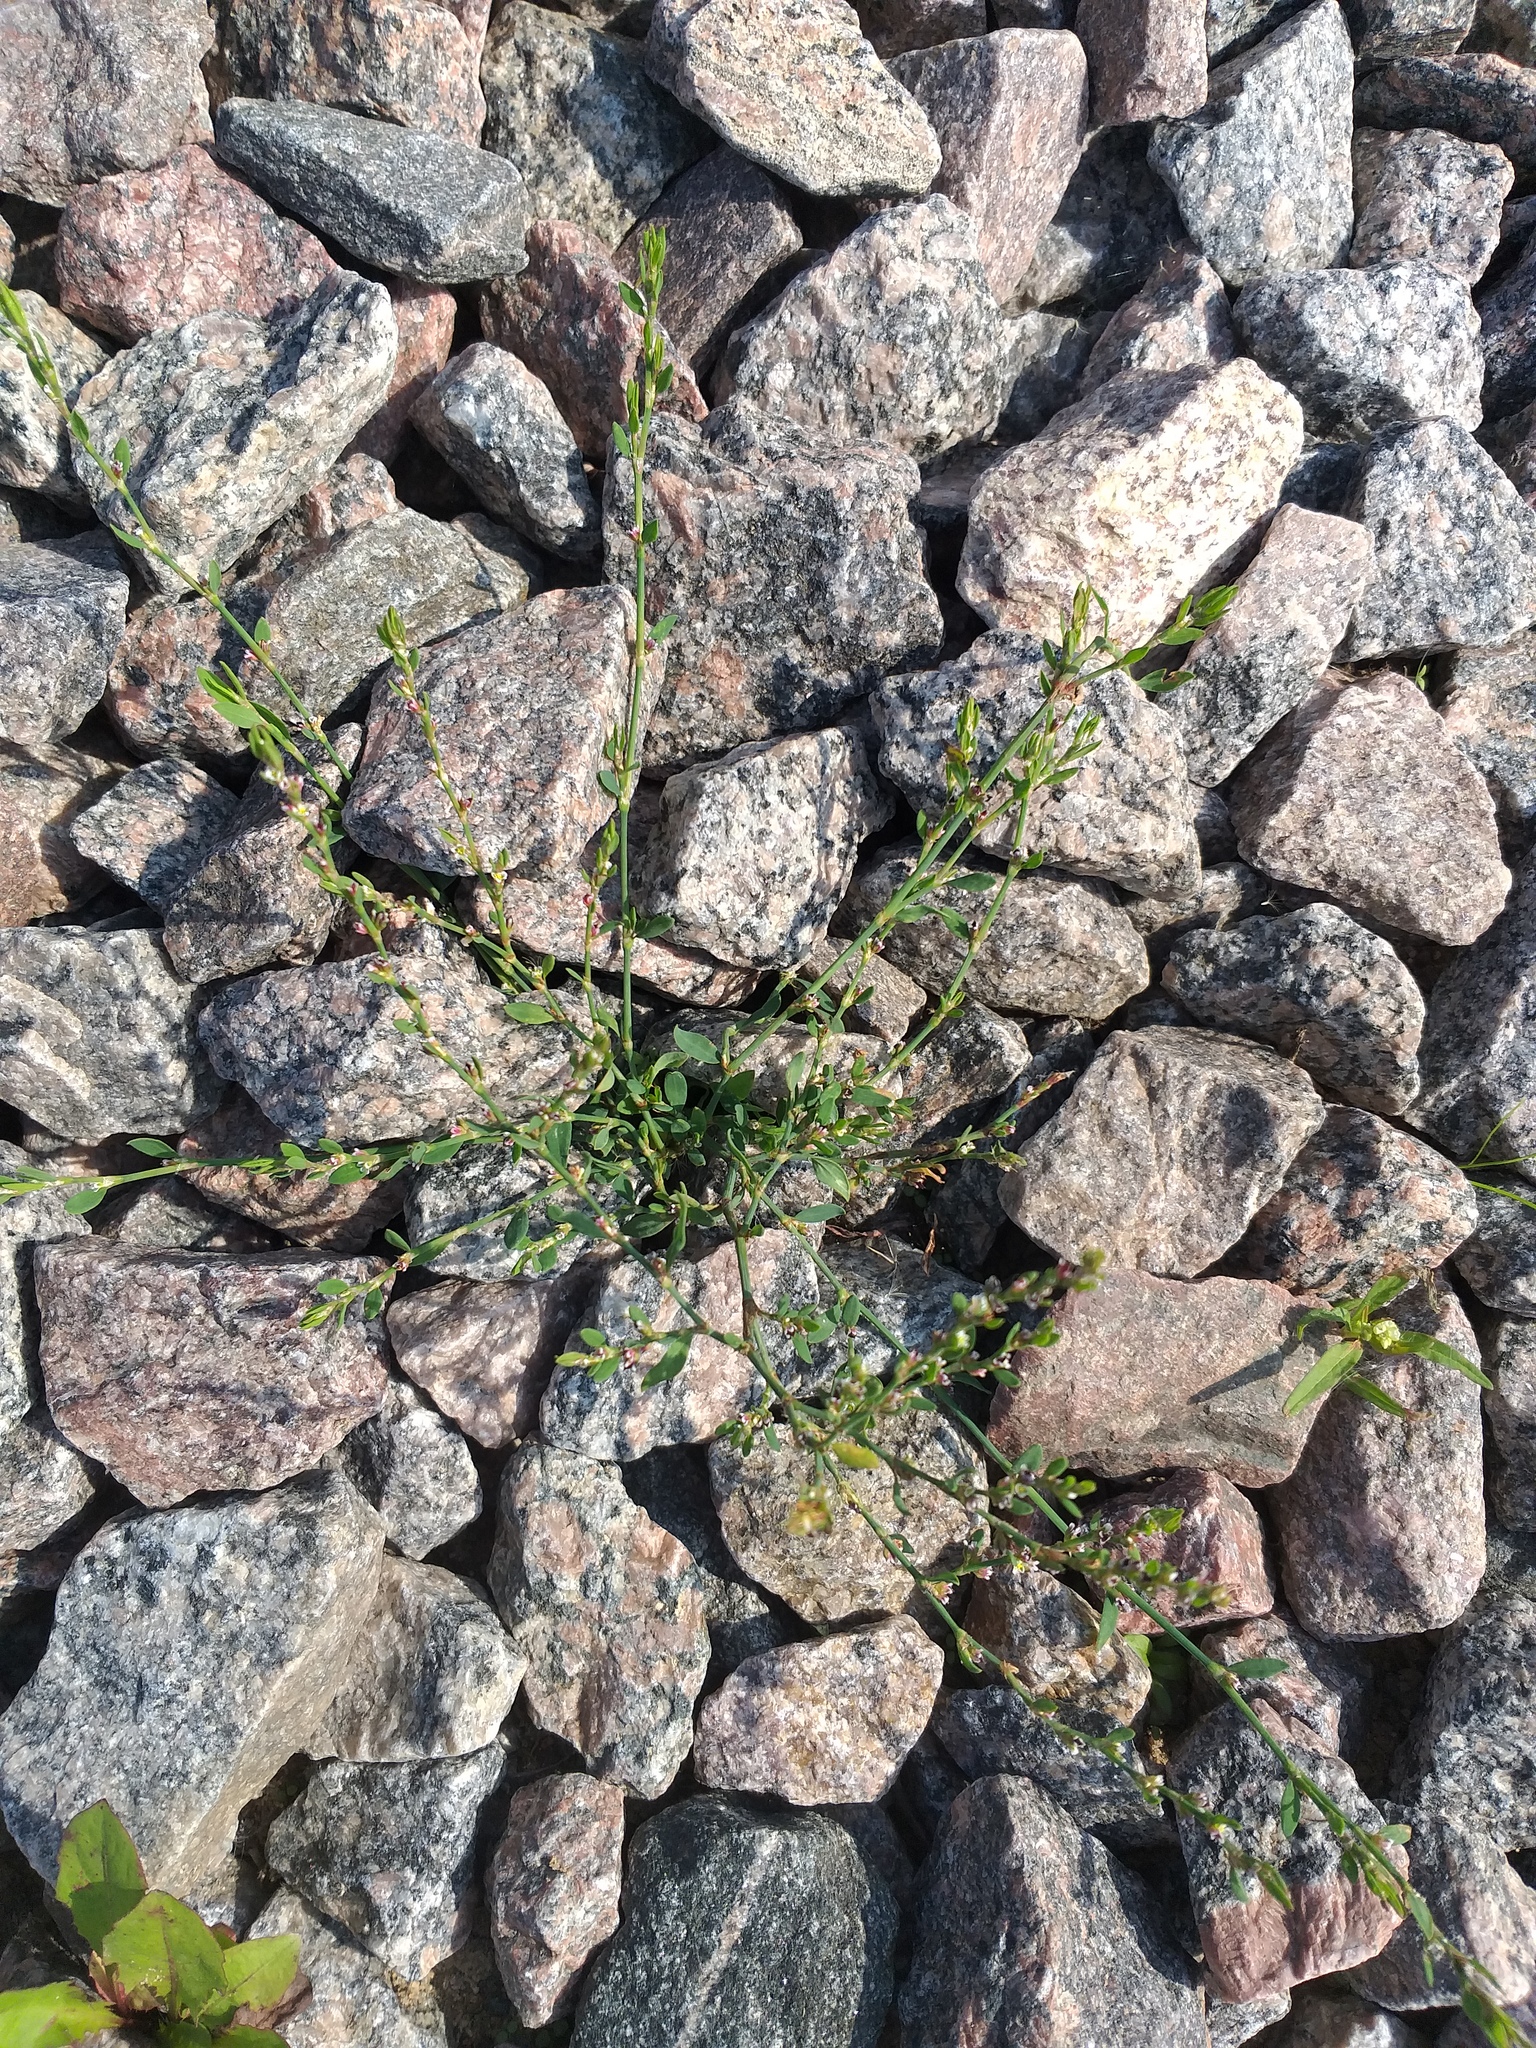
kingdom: Plantae
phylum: Tracheophyta
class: Magnoliopsida
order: Caryophyllales
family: Polygonaceae
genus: Polygonum
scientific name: Polygonum
